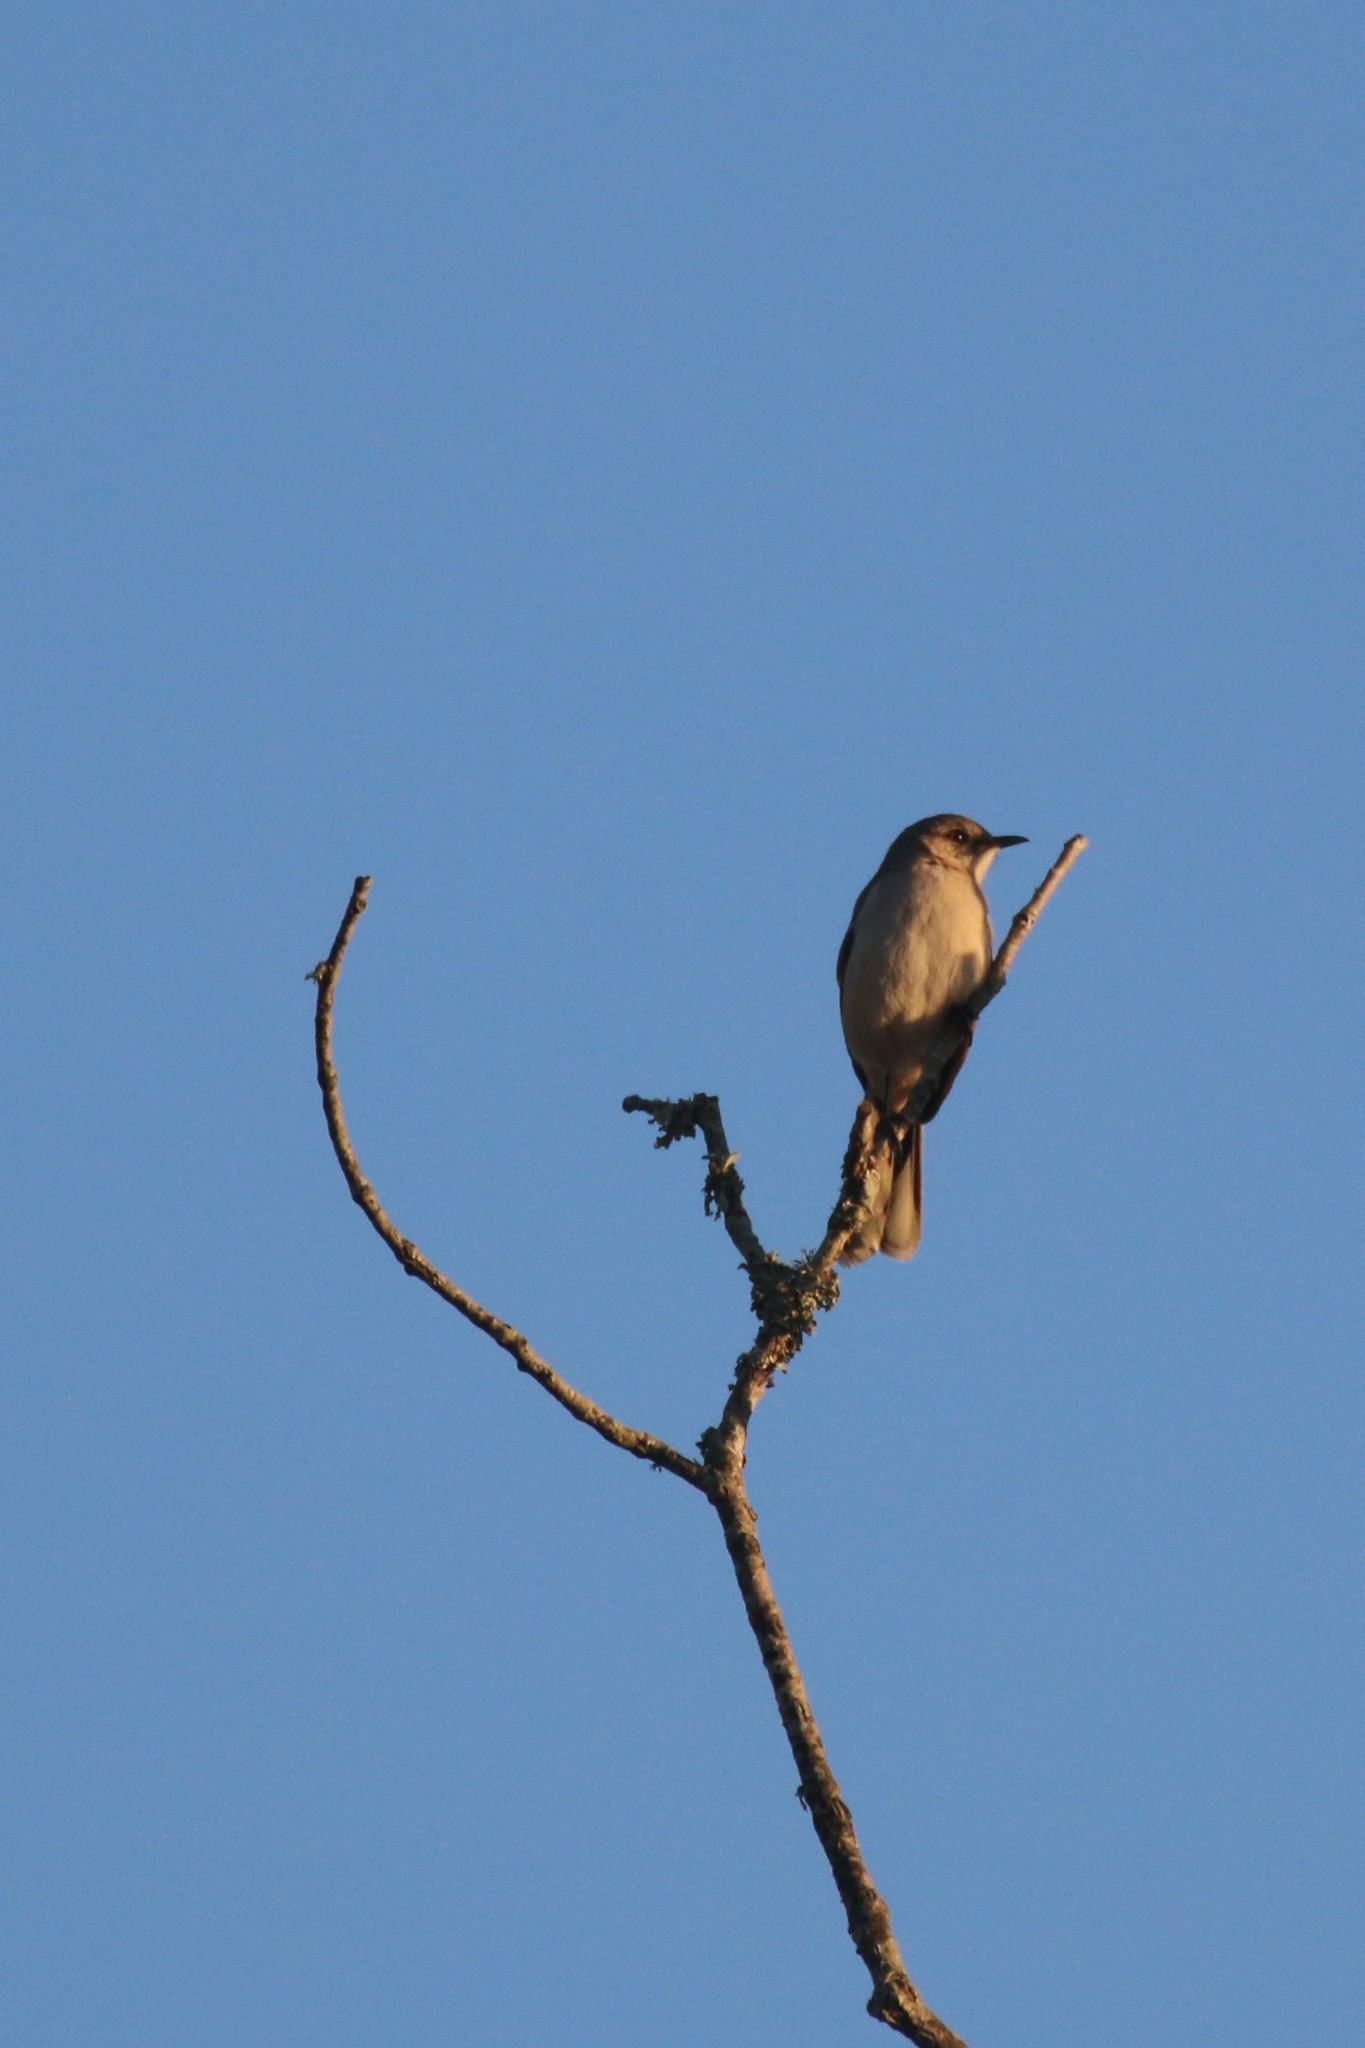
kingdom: Animalia
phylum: Chordata
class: Aves
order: Passeriformes
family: Mimidae
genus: Mimus
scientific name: Mimus polyglottos
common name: Northern mockingbird
